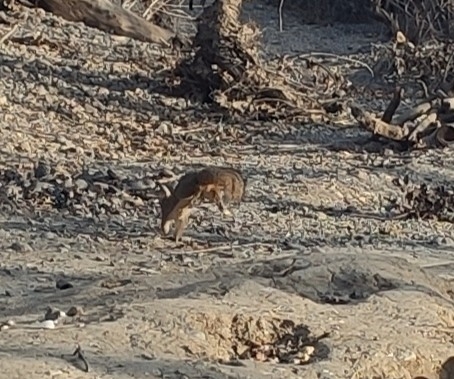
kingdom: Animalia
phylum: Chordata
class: Mammalia
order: Rodentia
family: Sciuridae
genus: Sciurus
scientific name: Sciurus niger
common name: Fox squirrel
